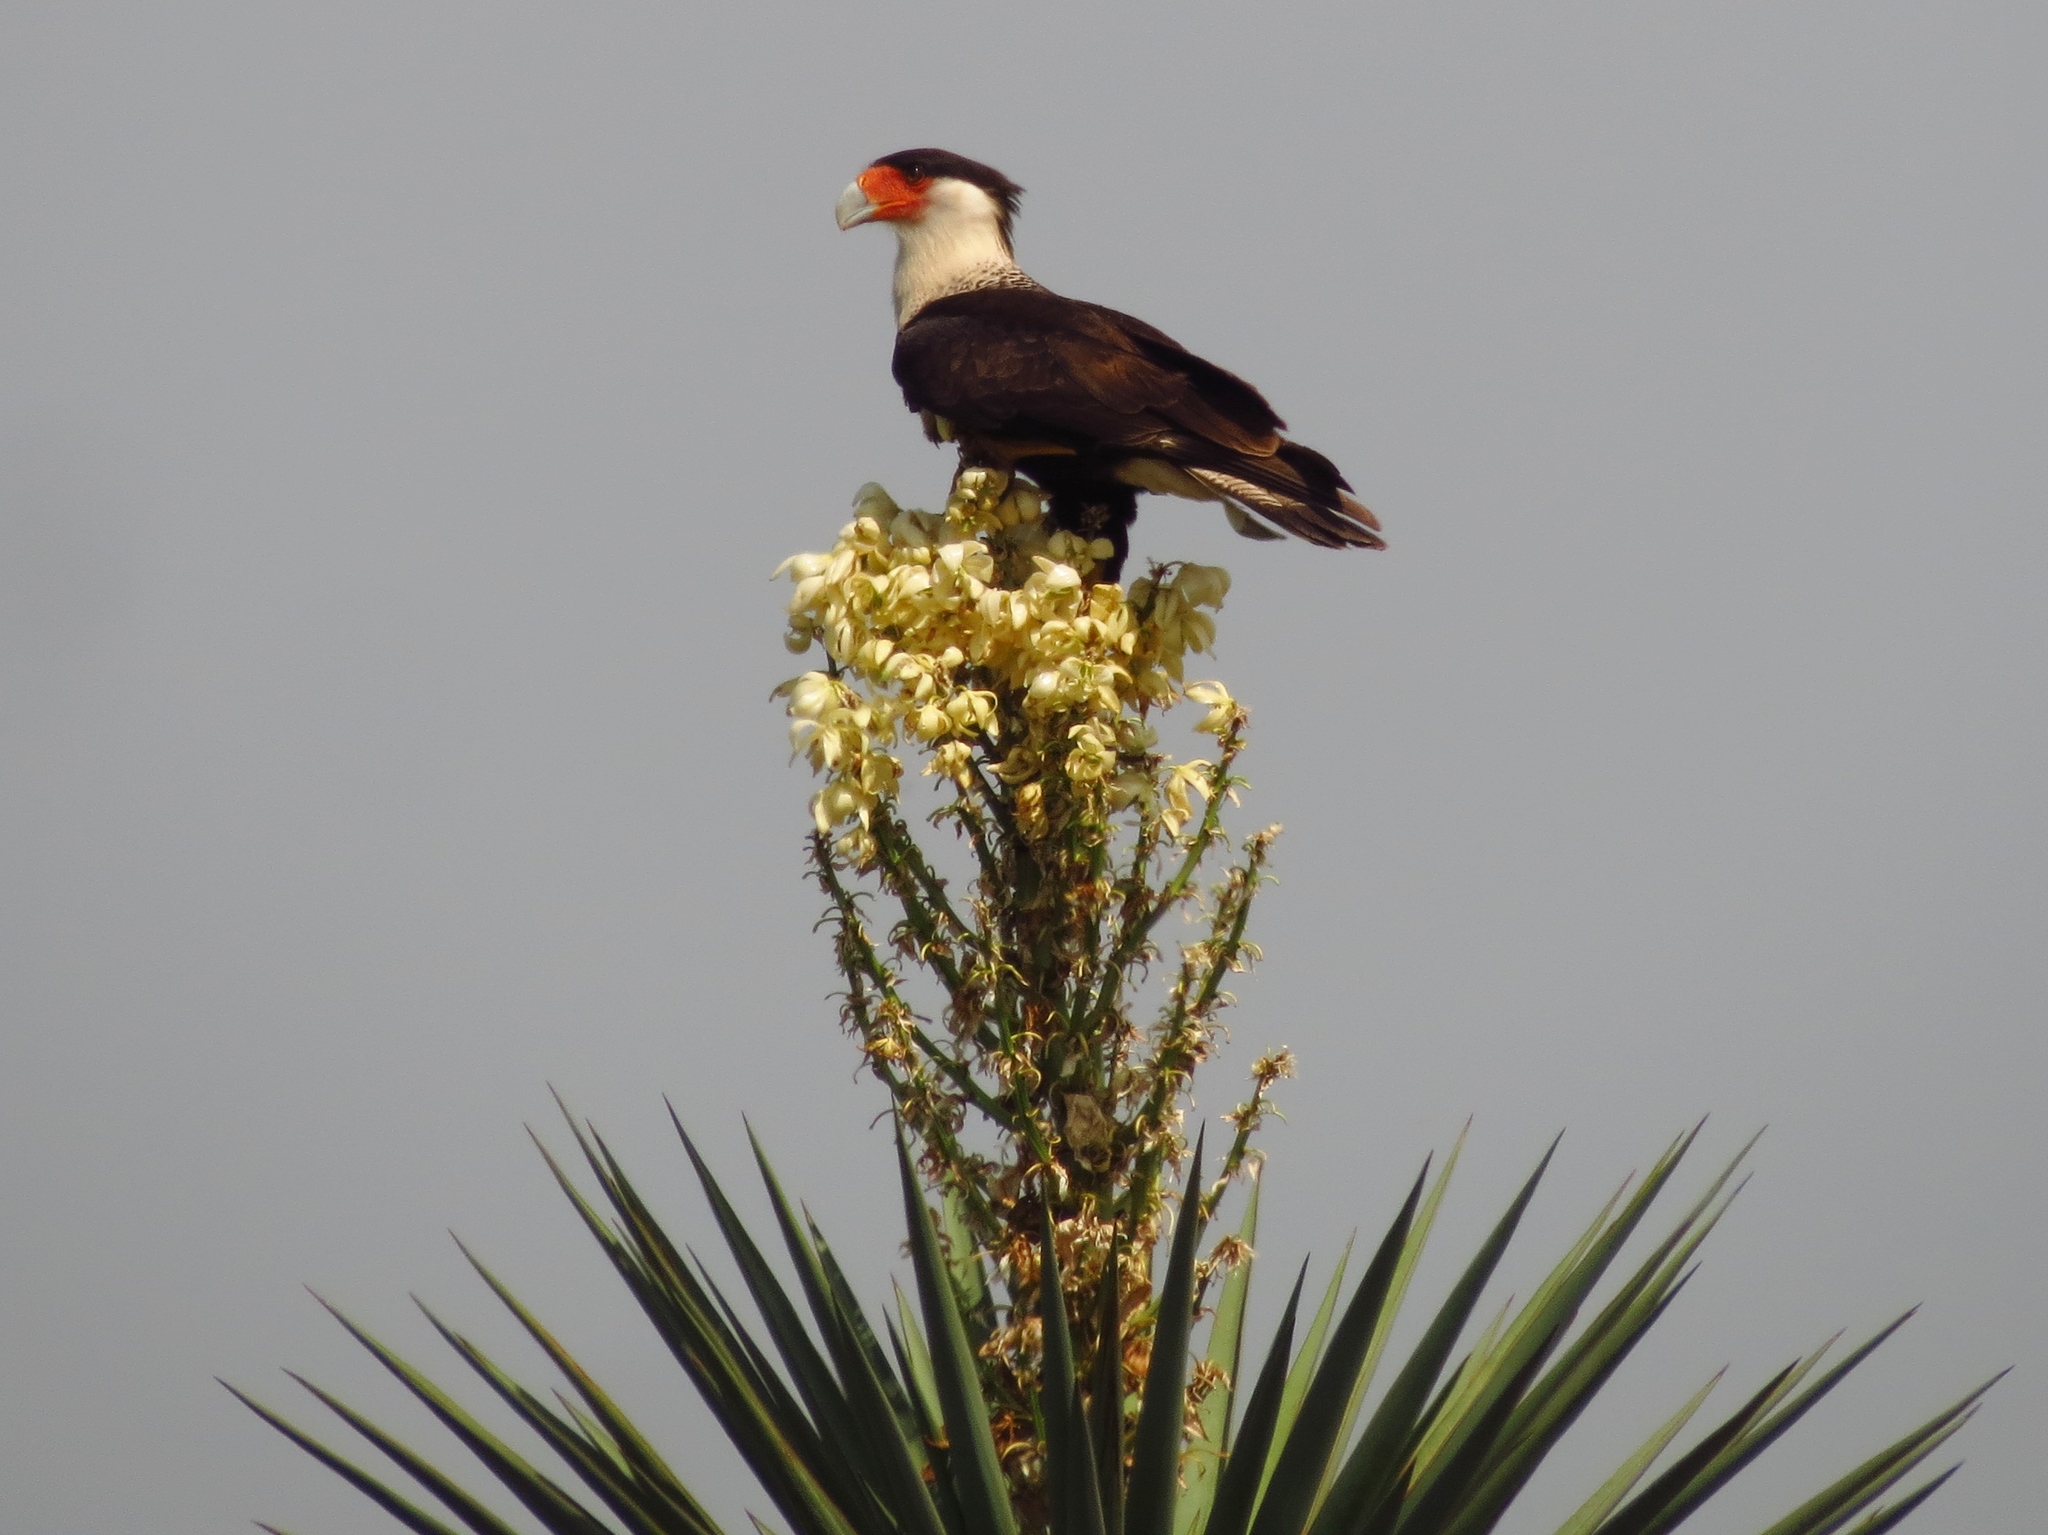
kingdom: Animalia
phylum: Chordata
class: Aves
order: Falconiformes
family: Falconidae
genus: Caracara
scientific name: Caracara plancus
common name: Southern caracara
